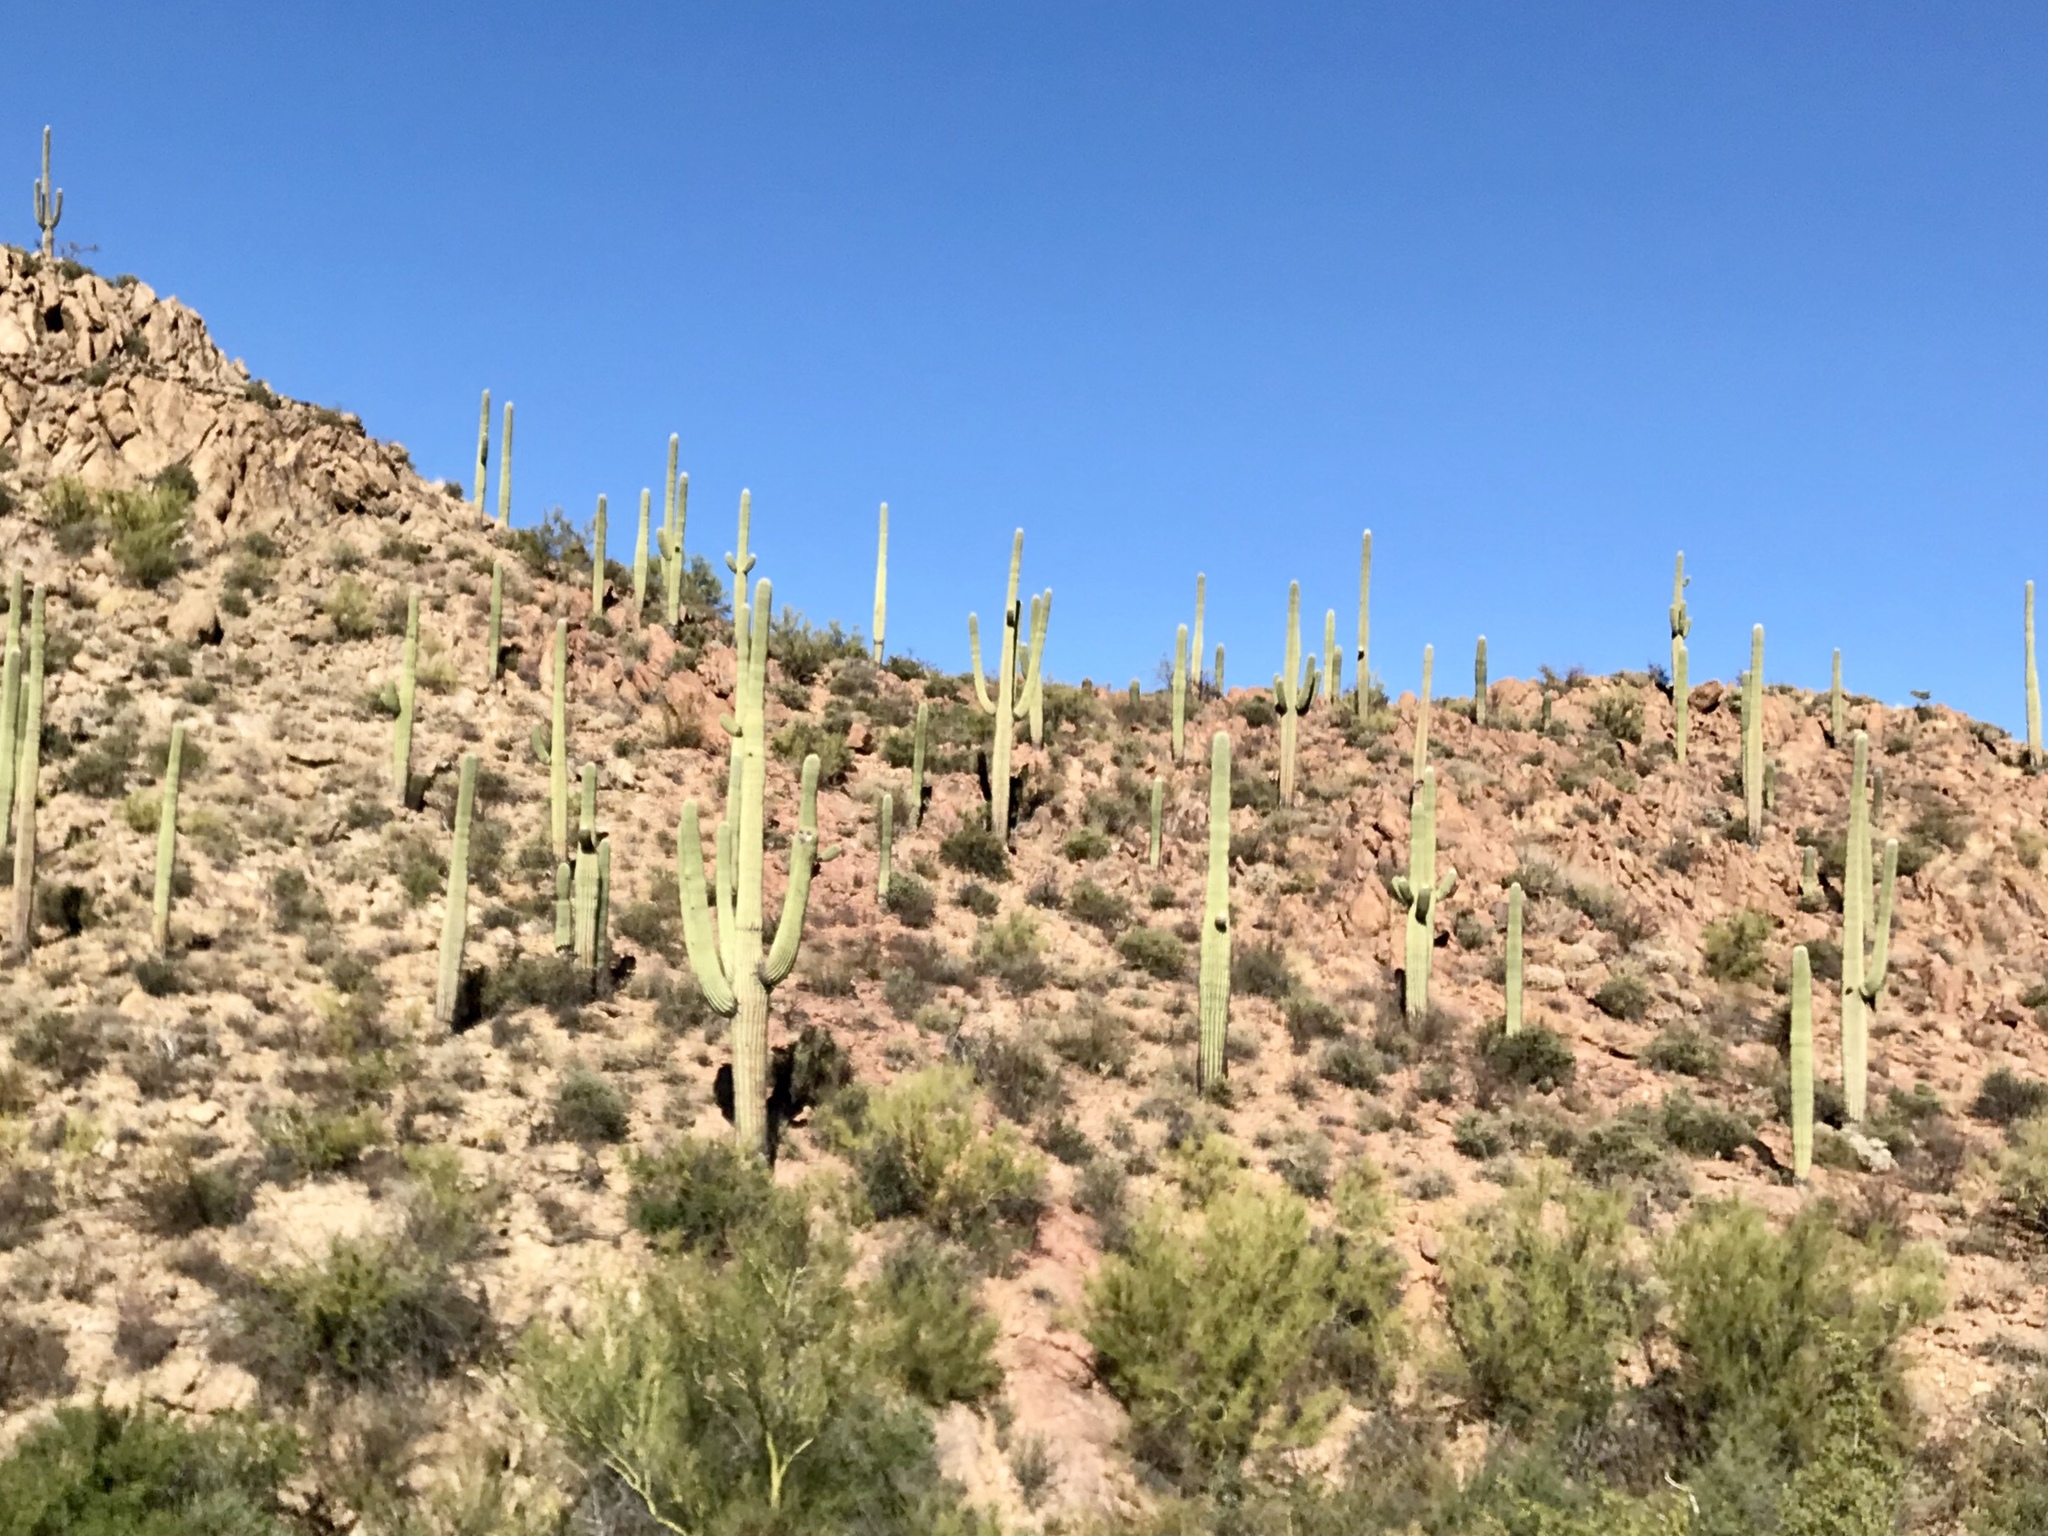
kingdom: Plantae
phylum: Tracheophyta
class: Magnoliopsida
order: Caryophyllales
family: Cactaceae
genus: Carnegiea
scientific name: Carnegiea gigantea
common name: Saguaro
